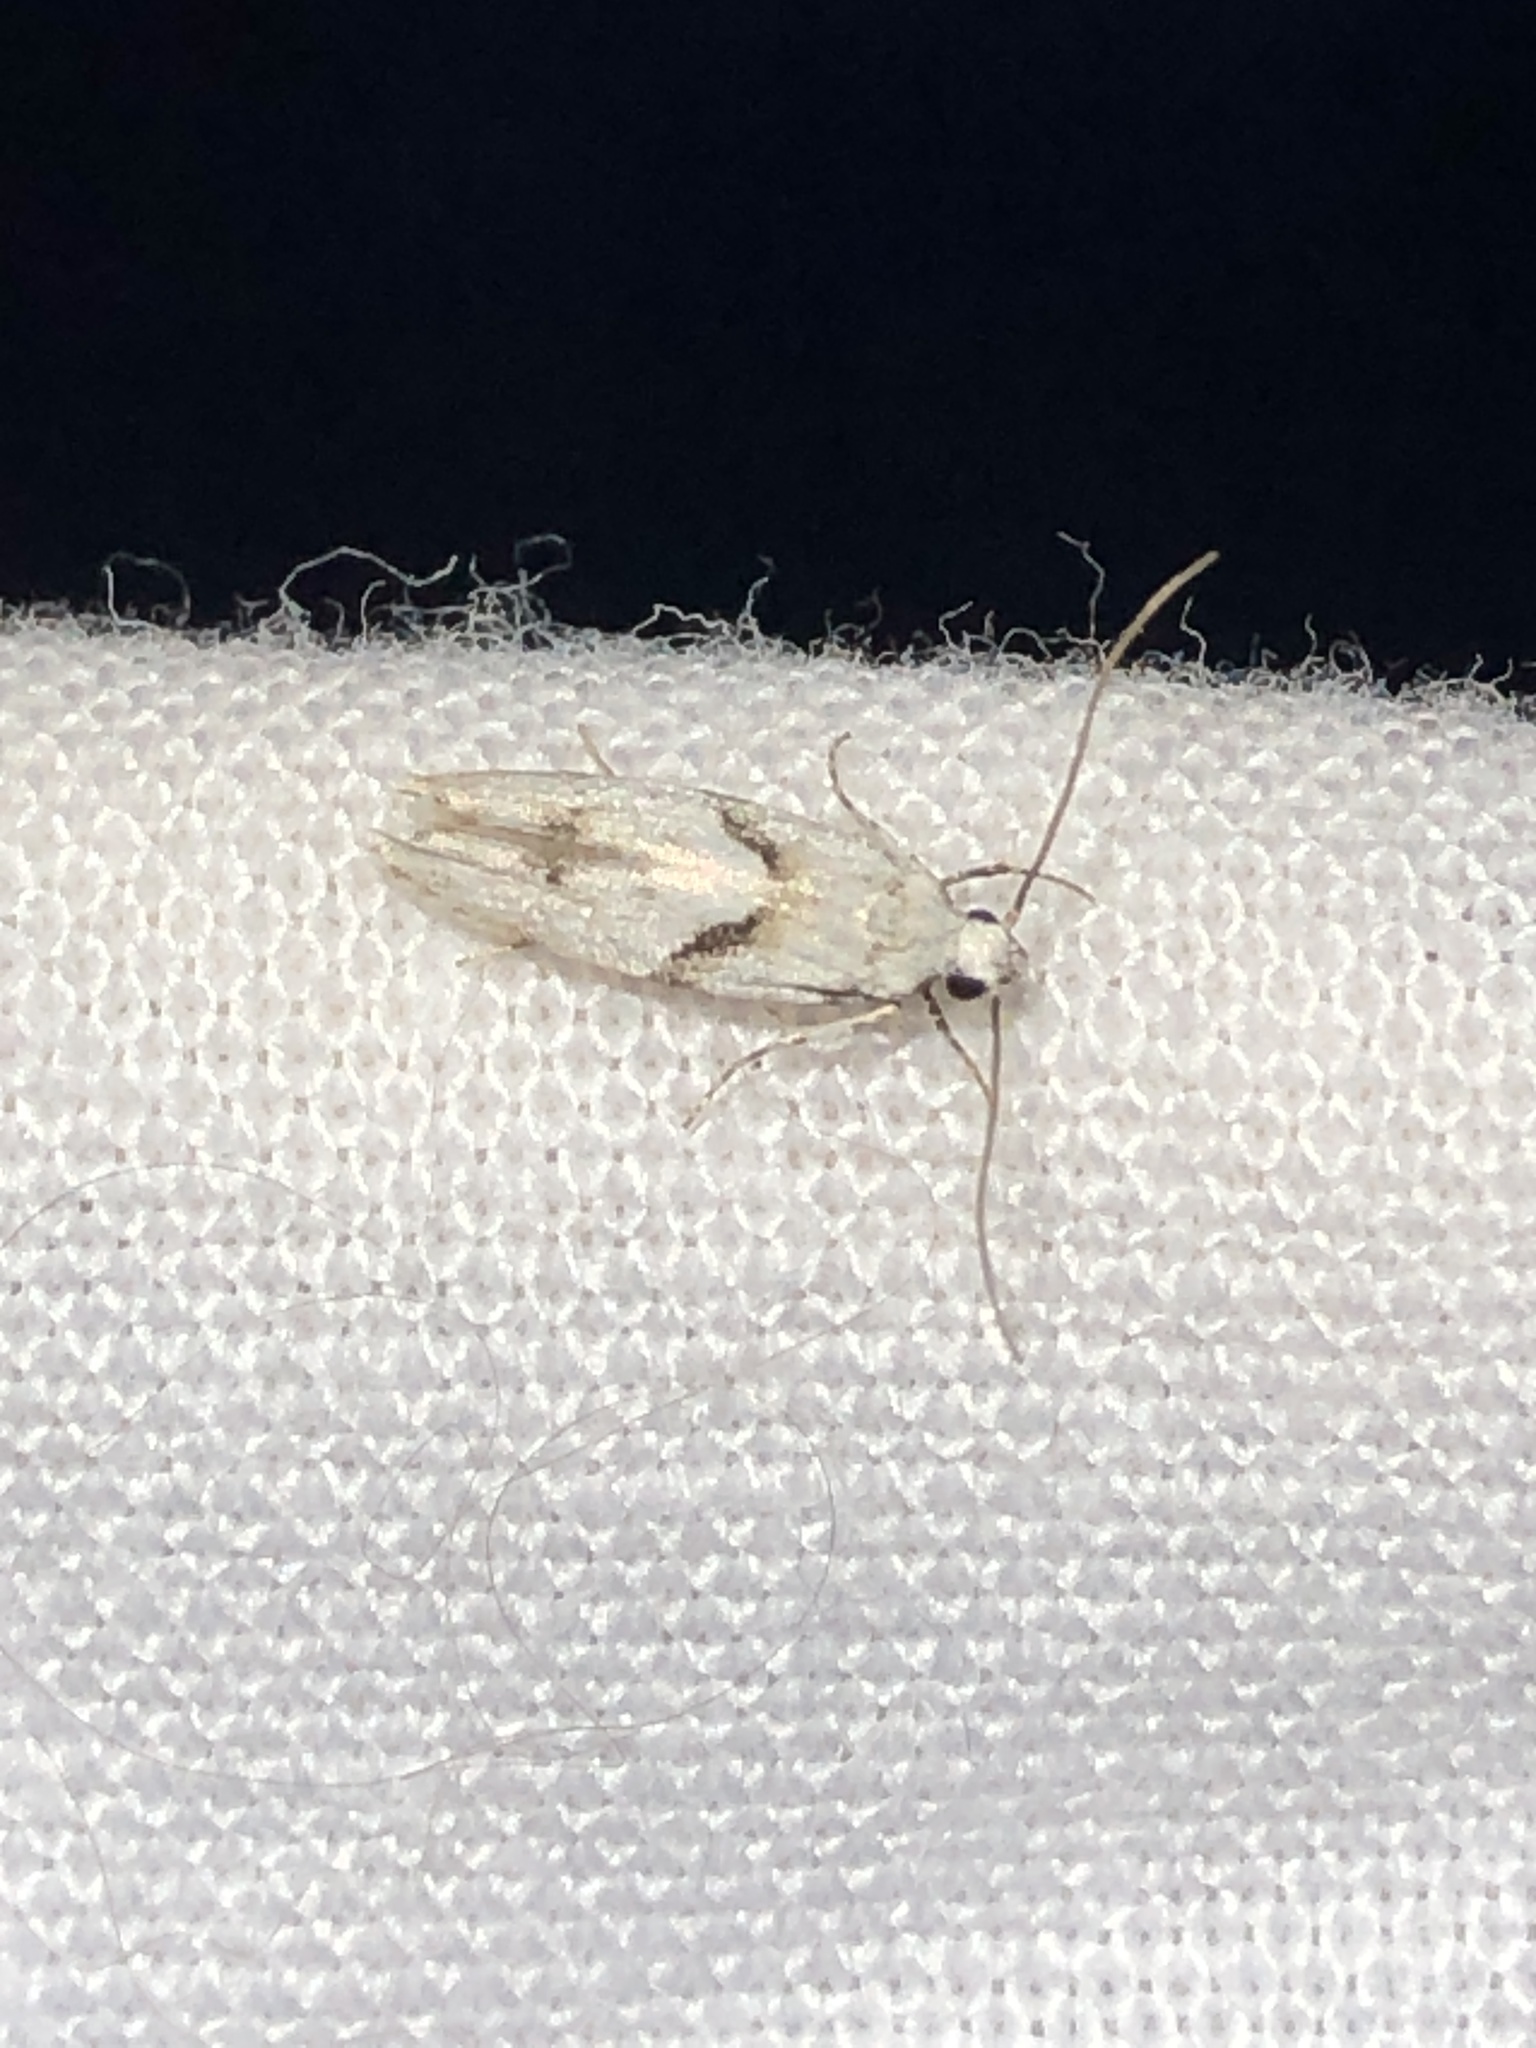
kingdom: Animalia
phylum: Arthropoda
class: Insecta
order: Lepidoptera
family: Gelechiidae
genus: Arogalea
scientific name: Arogalea cristifasciella
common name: White stripe-backed moth
